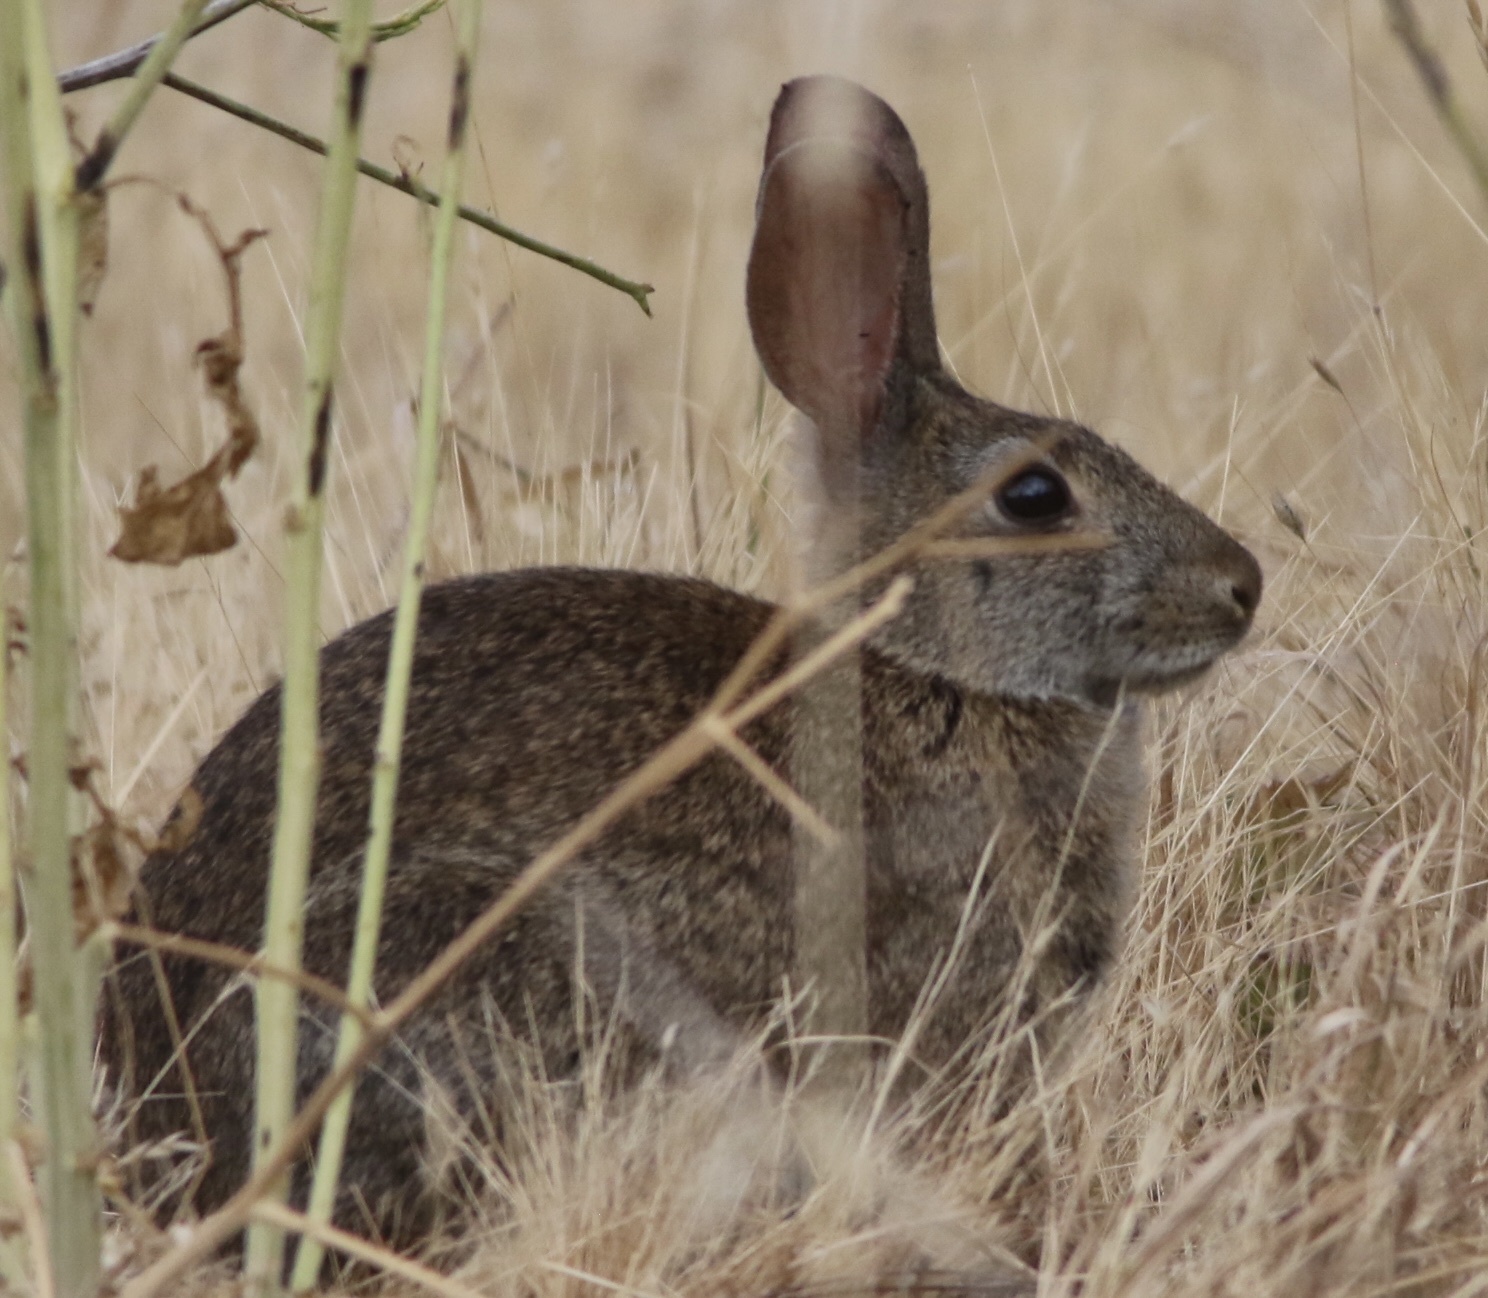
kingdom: Animalia
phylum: Chordata
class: Mammalia
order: Lagomorpha
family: Leporidae
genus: Sylvilagus
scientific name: Sylvilagus bachmani
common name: Brush rabbit
